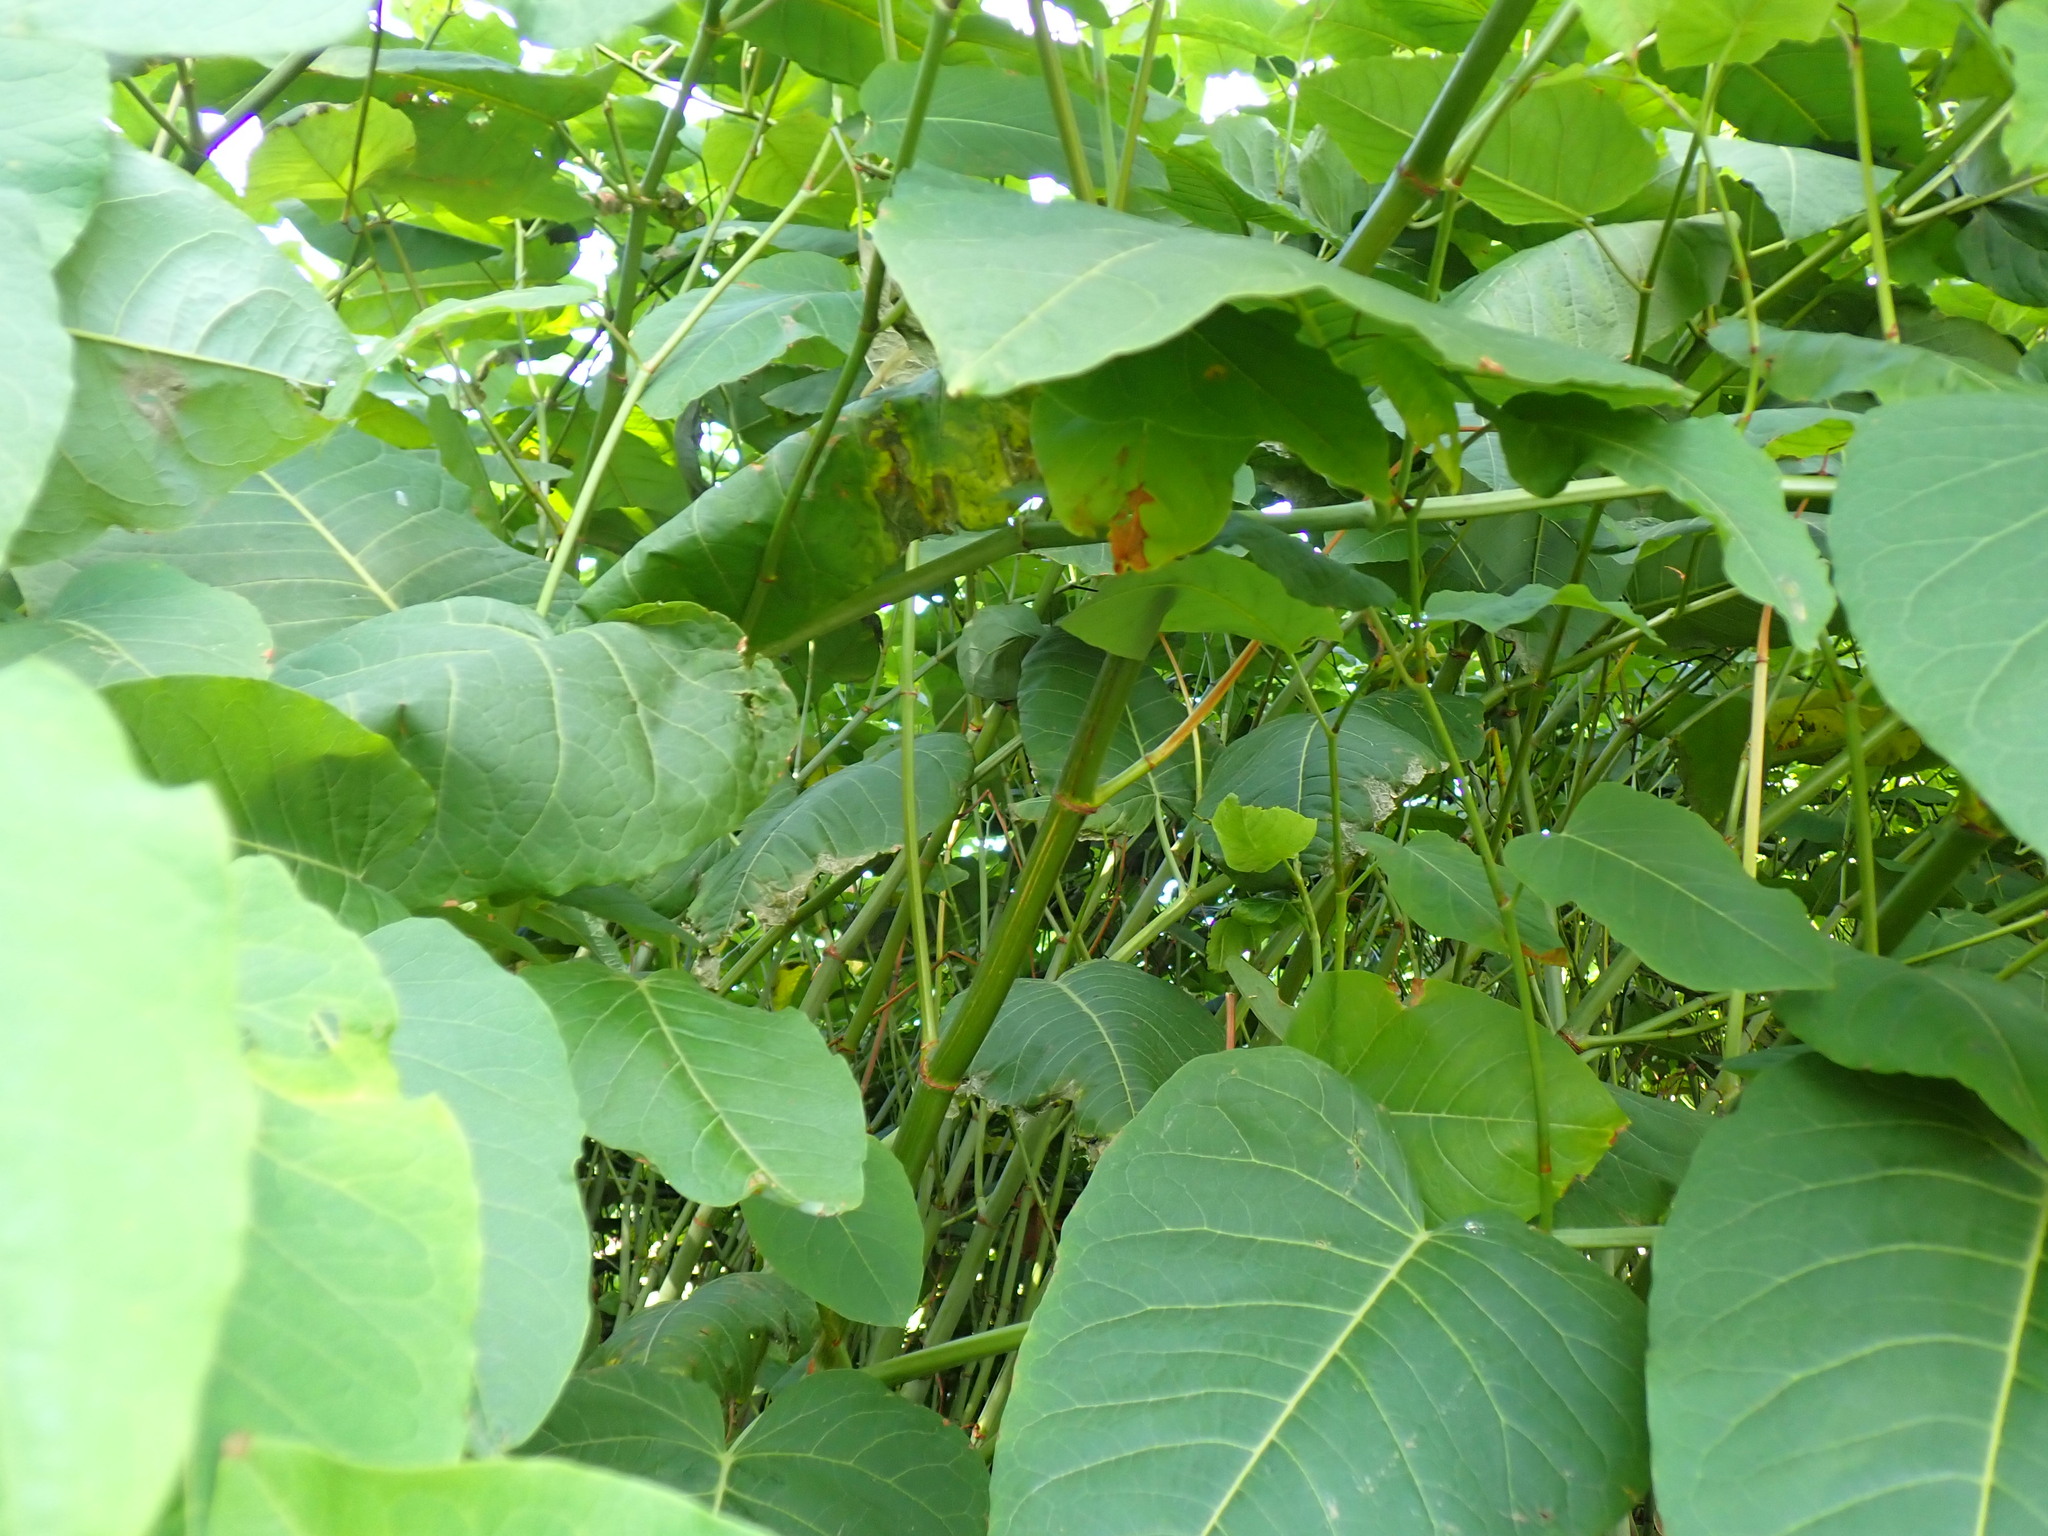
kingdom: Plantae
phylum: Tracheophyta
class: Magnoliopsida
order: Caryophyllales
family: Polygonaceae
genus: Reynoutria
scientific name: Reynoutria sachalinensis
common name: Giant knotweed
